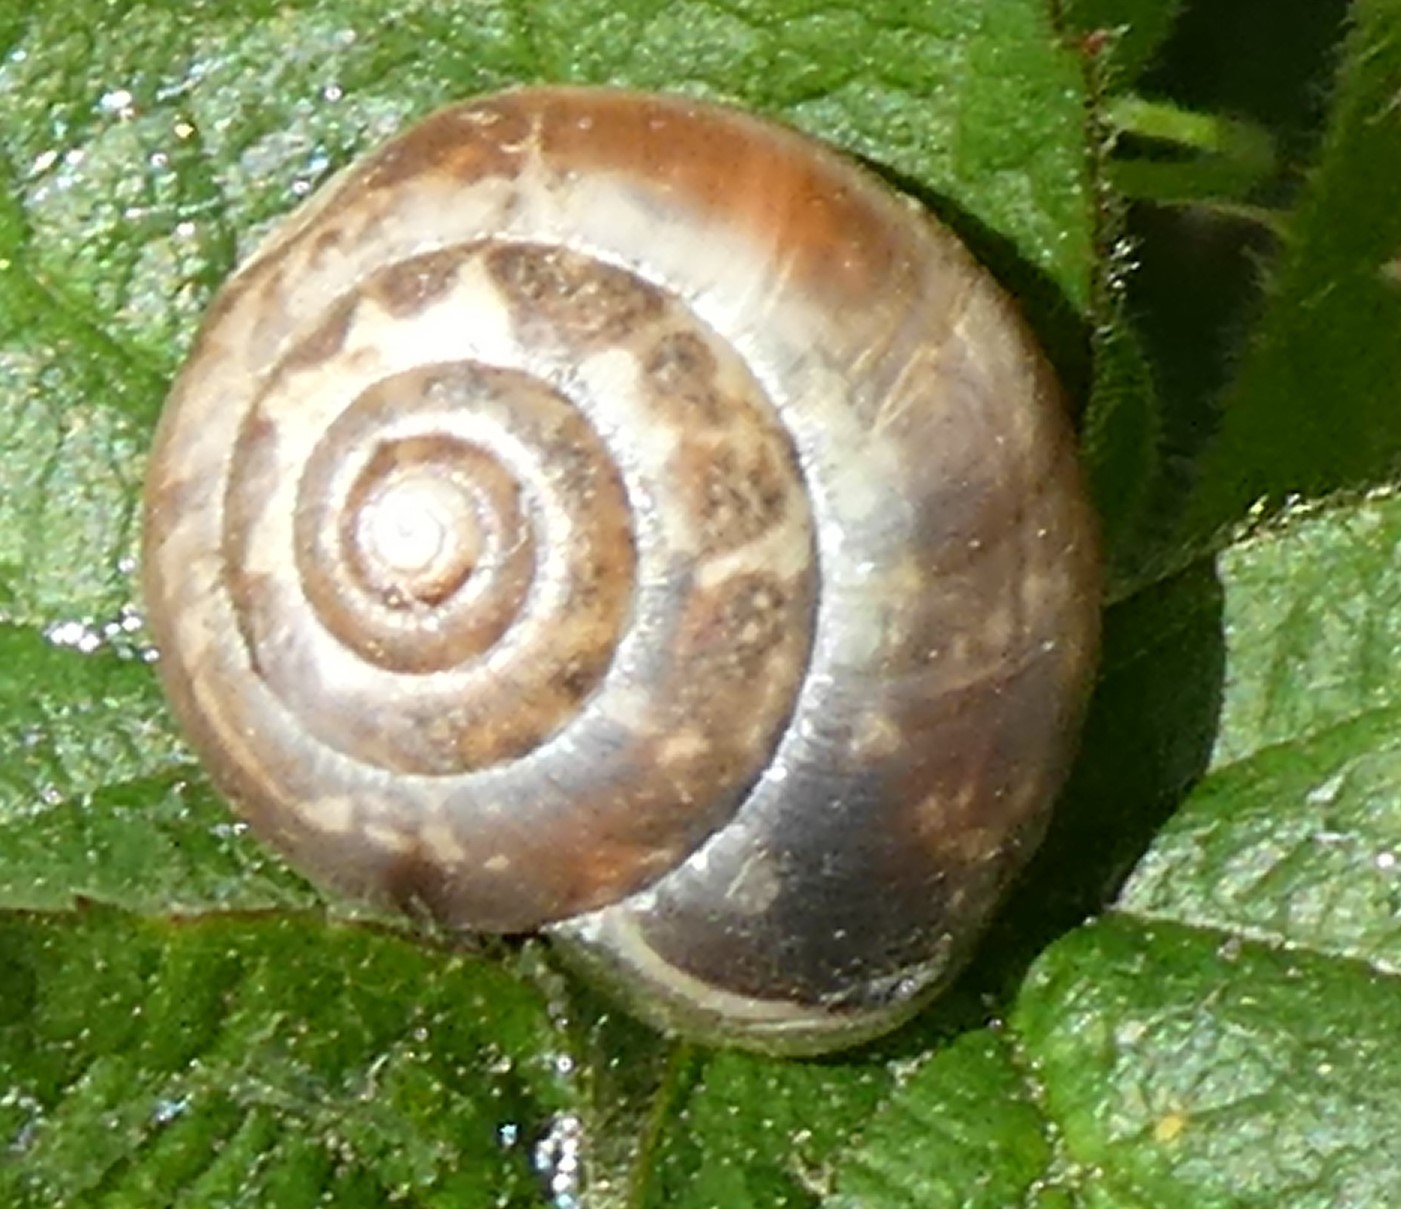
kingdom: Animalia
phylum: Mollusca
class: Gastropoda
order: Stylommatophora
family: Hygromiidae
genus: Monacha
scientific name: Monacha cantiana
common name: Kentish snail
